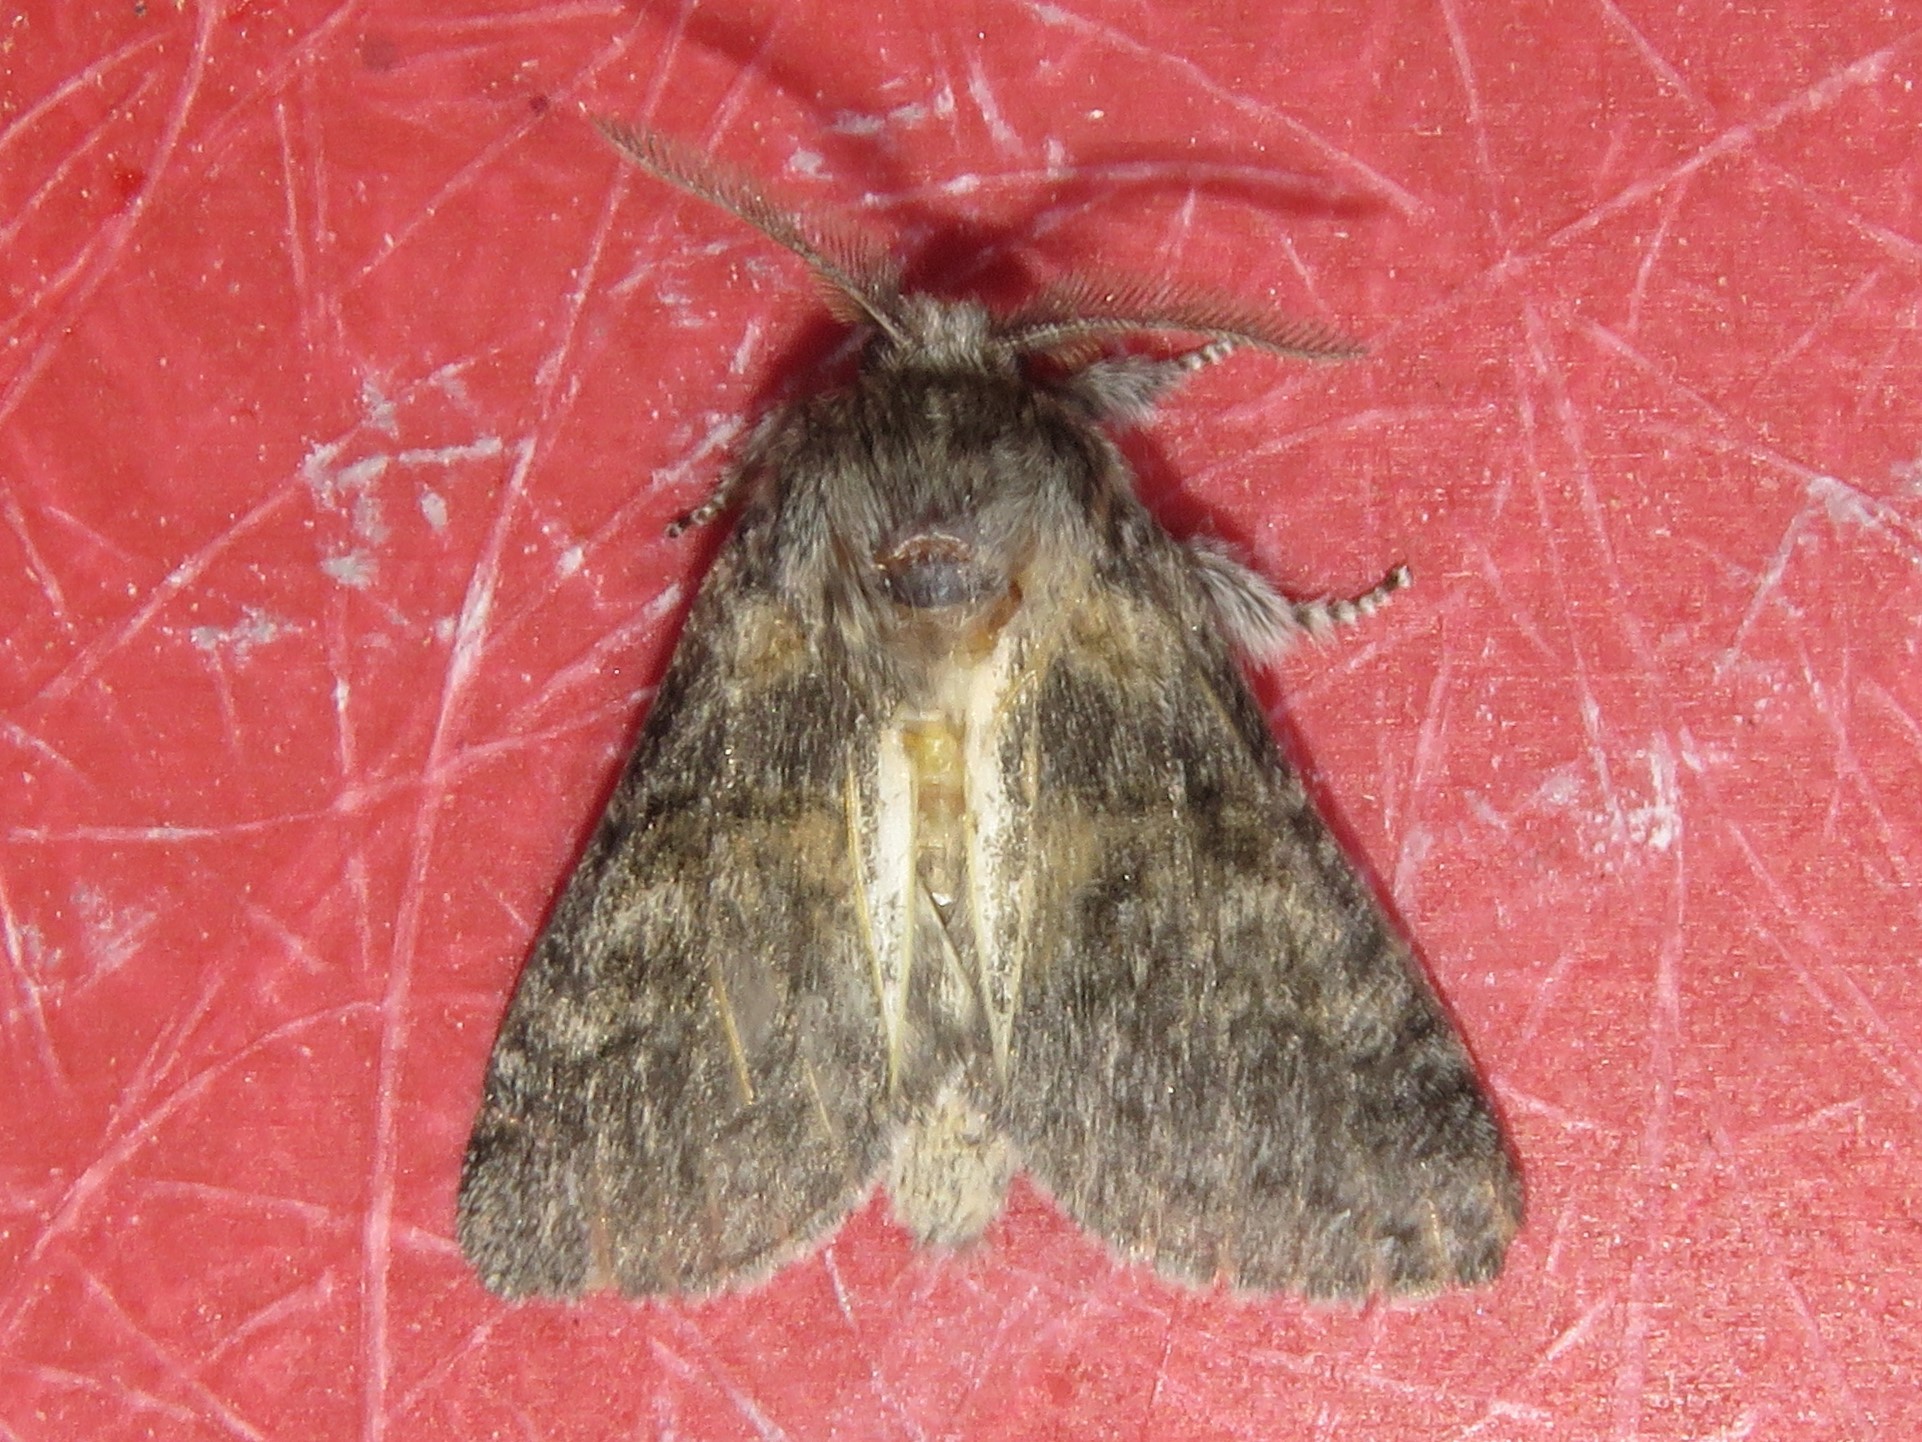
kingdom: Animalia
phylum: Arthropoda
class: Insecta
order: Lepidoptera
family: Notodontidae
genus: Gluphisia
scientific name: Gluphisia septentrionis
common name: Common gluphisia
